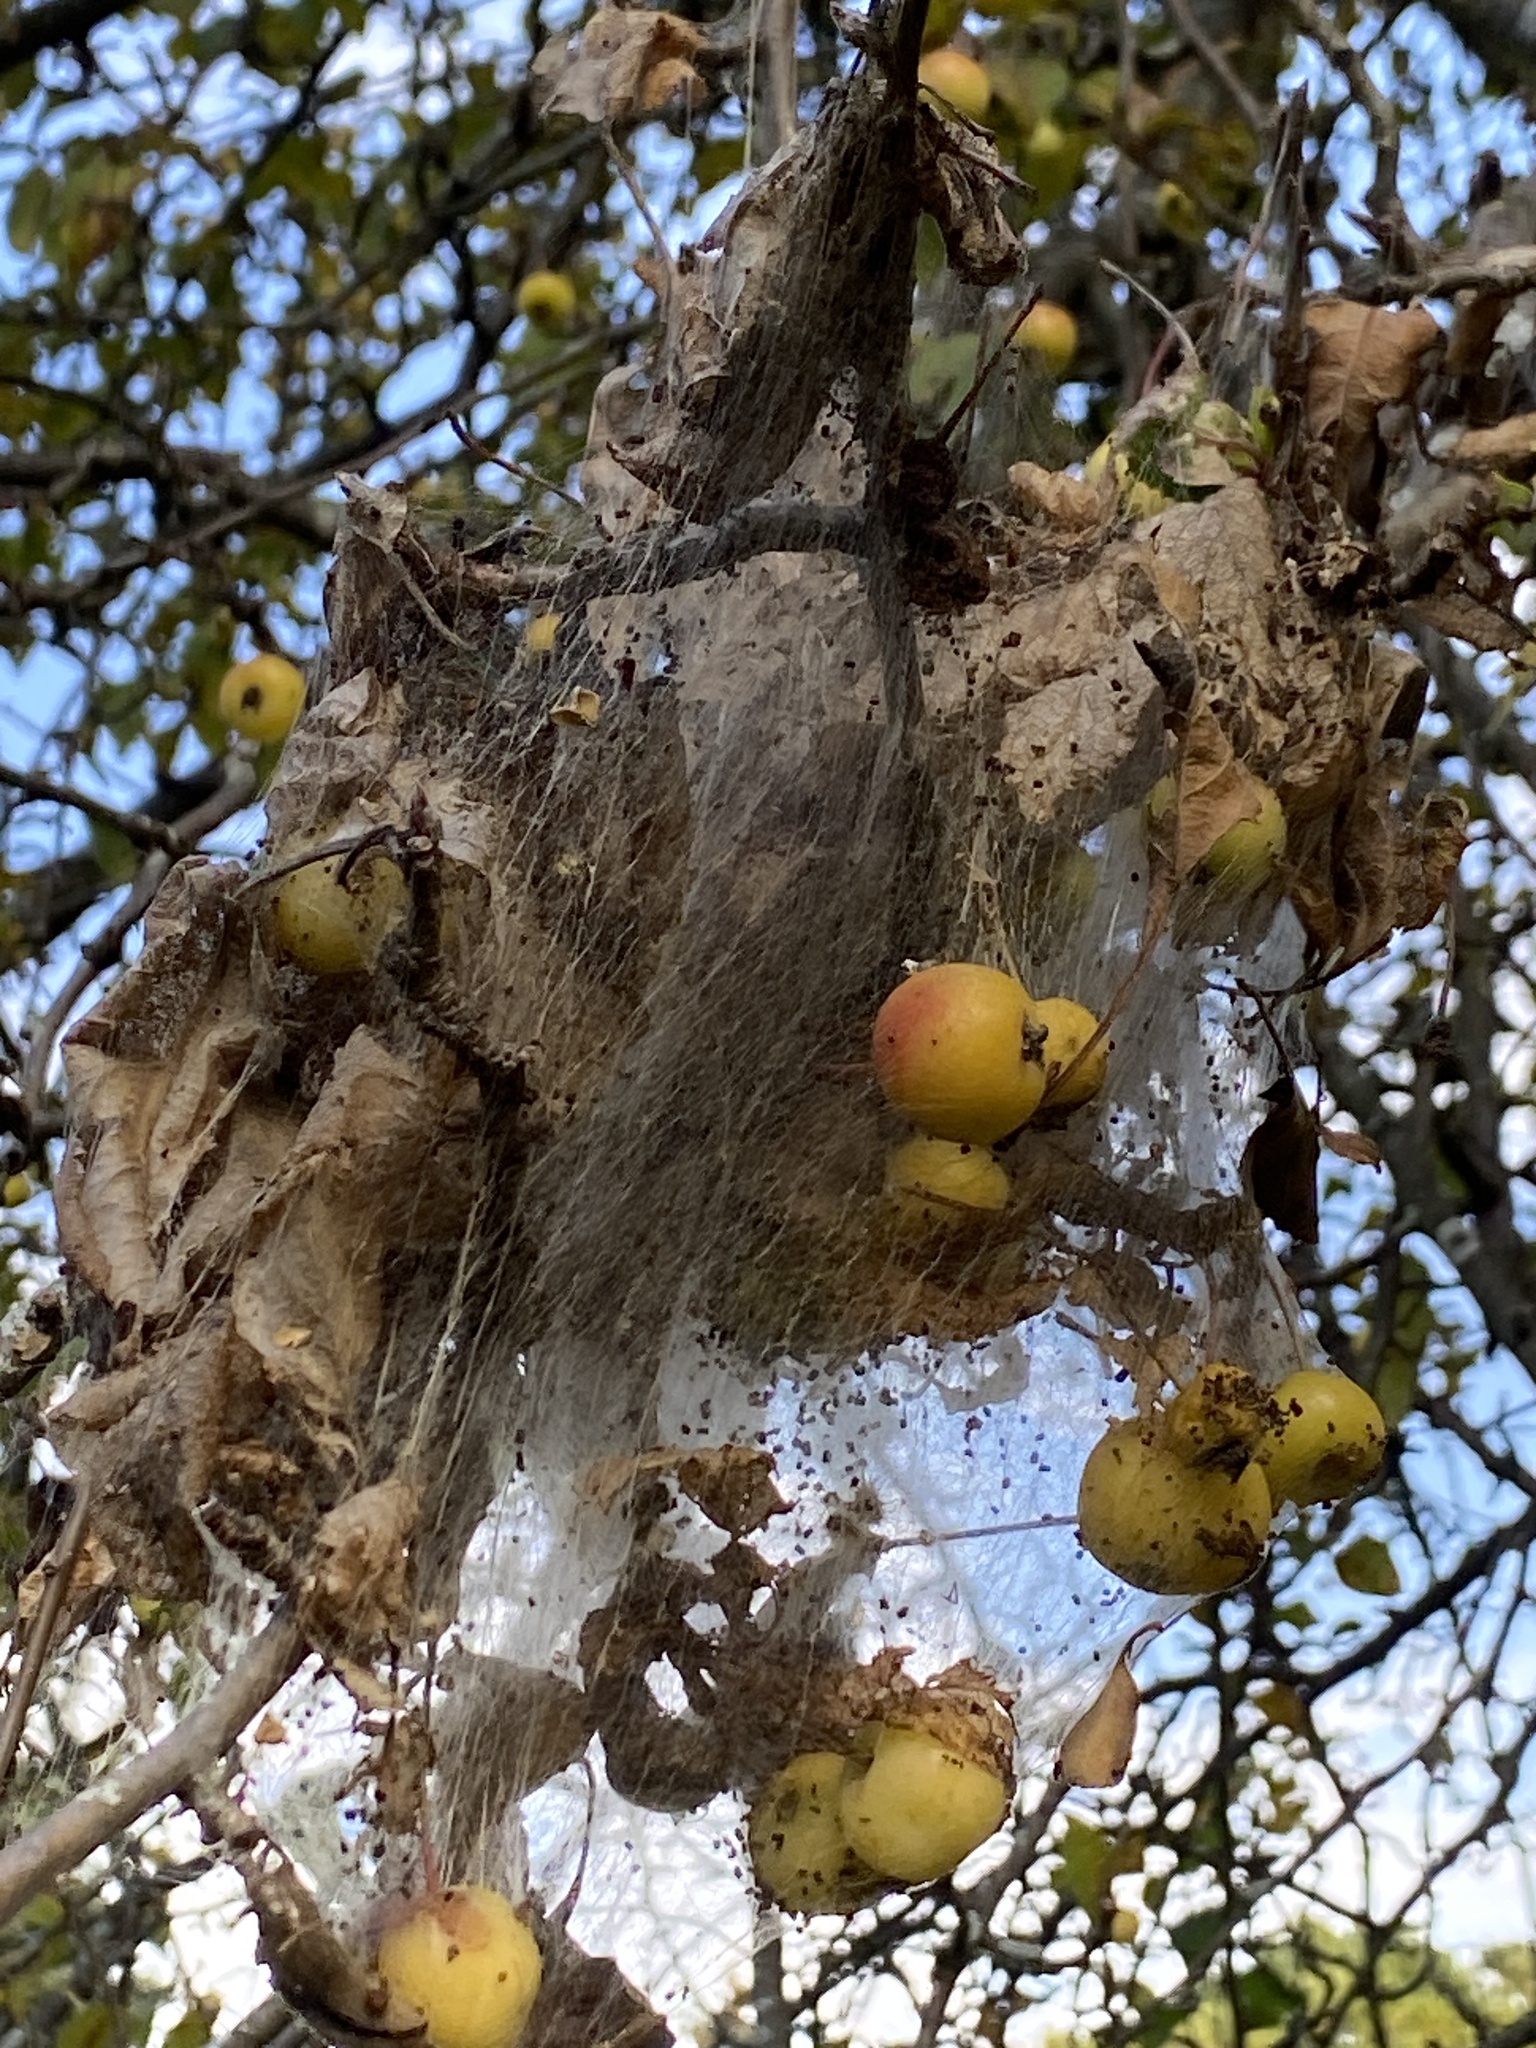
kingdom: Animalia
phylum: Arthropoda
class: Insecta
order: Lepidoptera
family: Erebidae
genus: Hyphantria
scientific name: Hyphantria cunea
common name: American white moth
